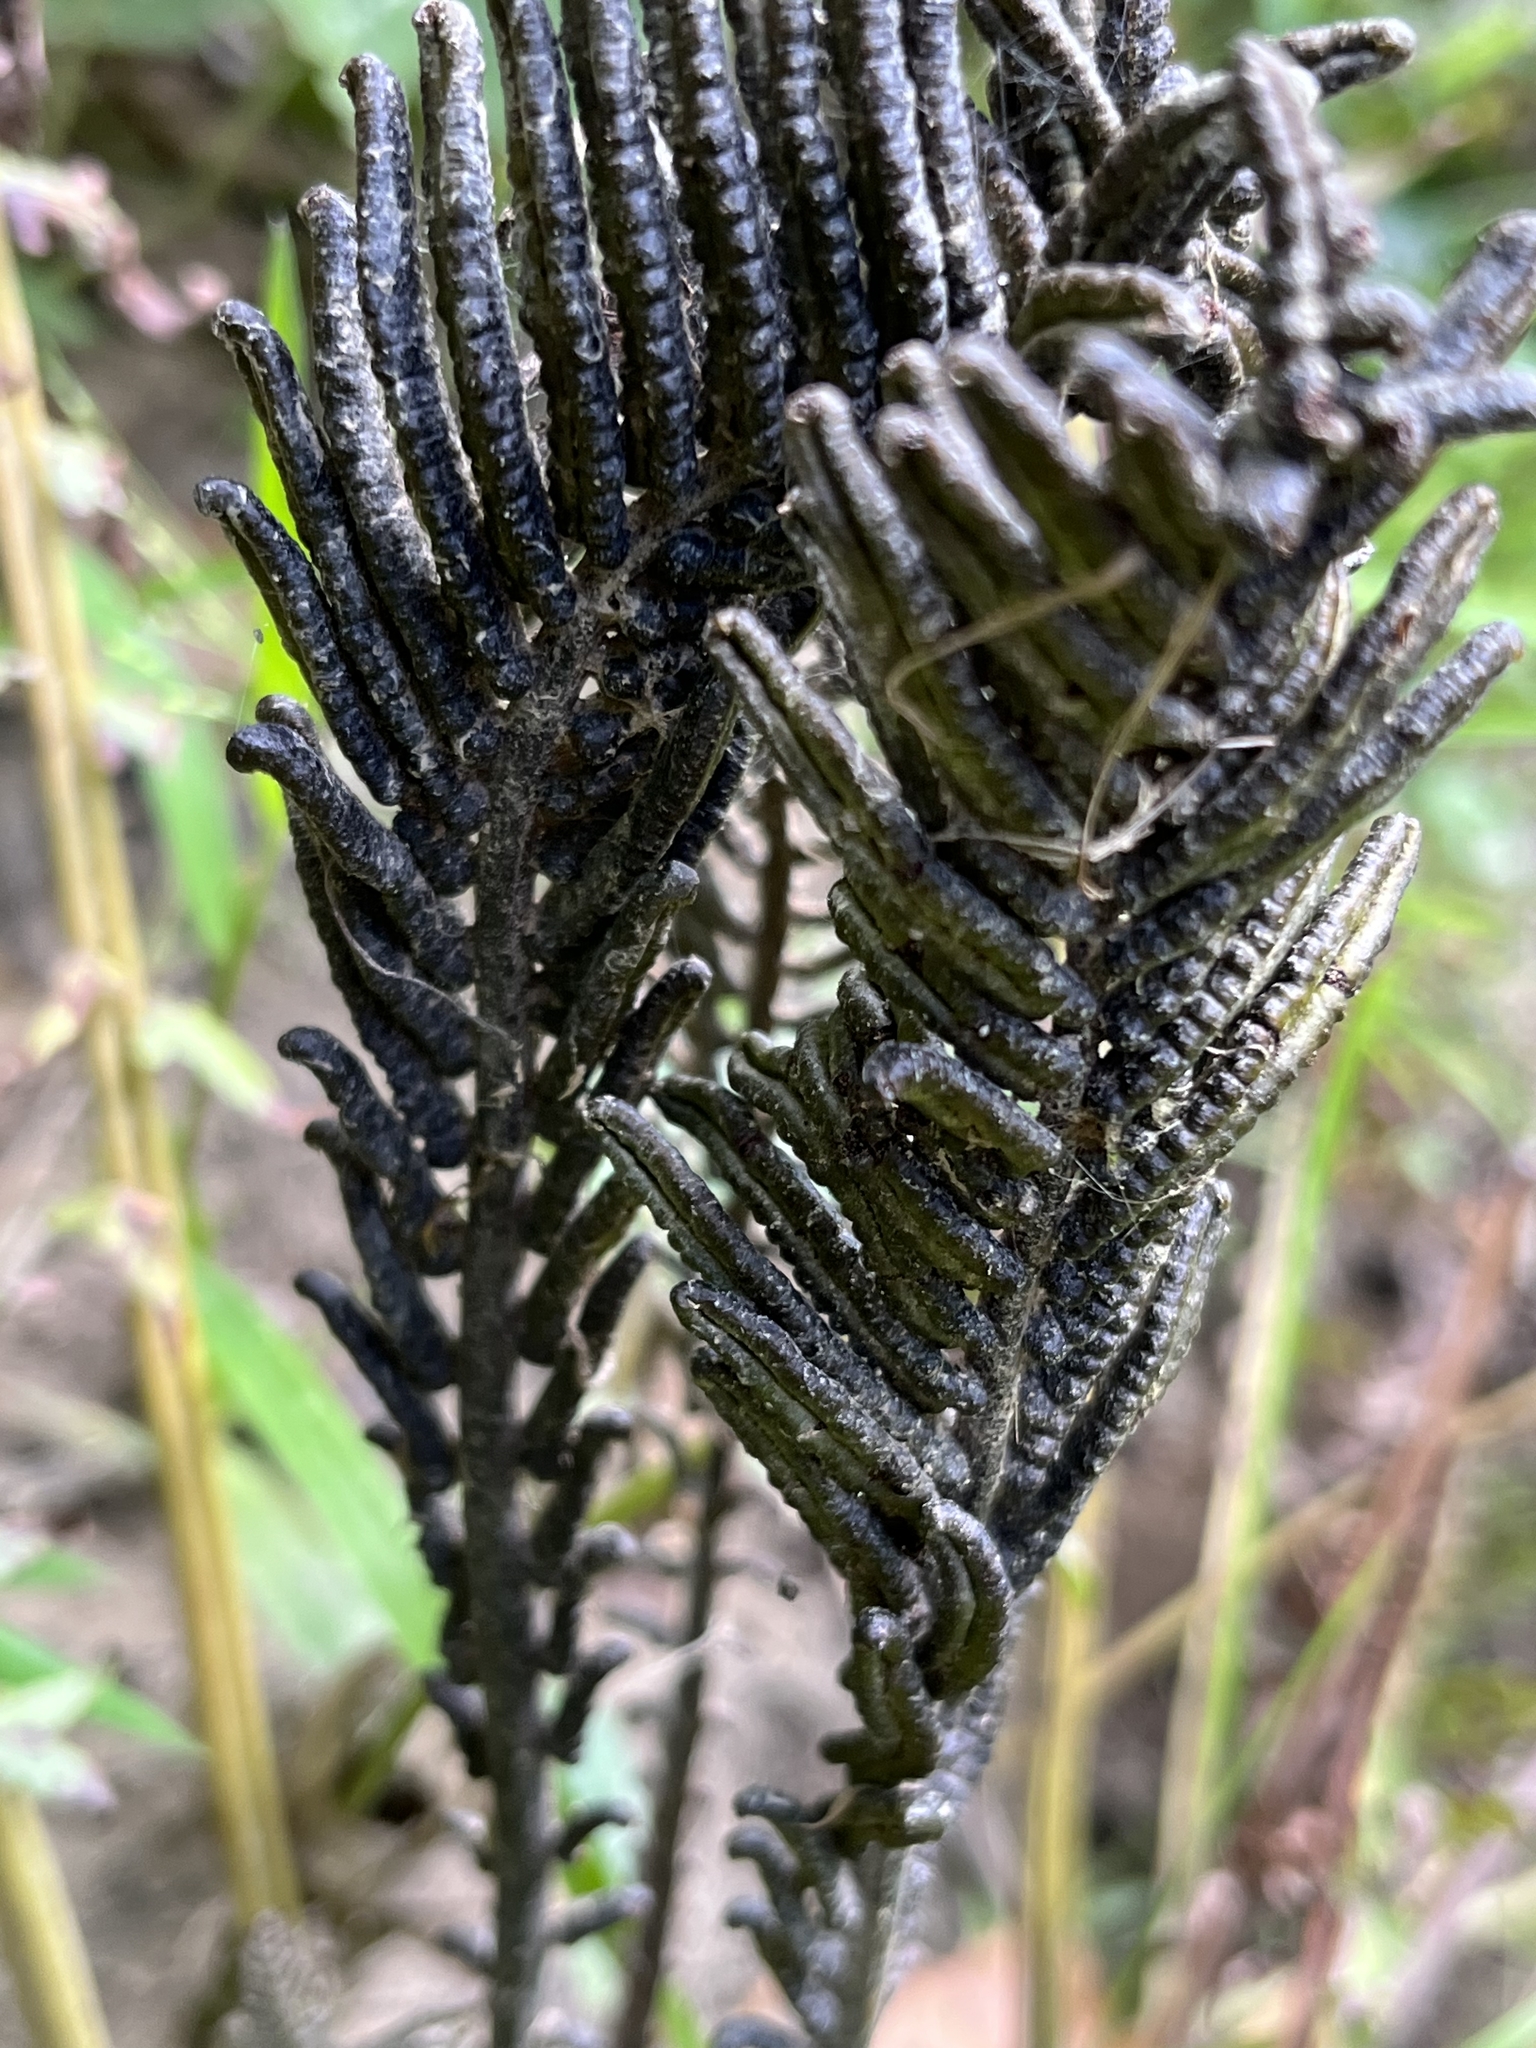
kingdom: Plantae
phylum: Tracheophyta
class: Polypodiopsida
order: Polypodiales
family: Onocleaceae
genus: Matteuccia
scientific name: Matteuccia struthiopteris
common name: Ostrich fern
